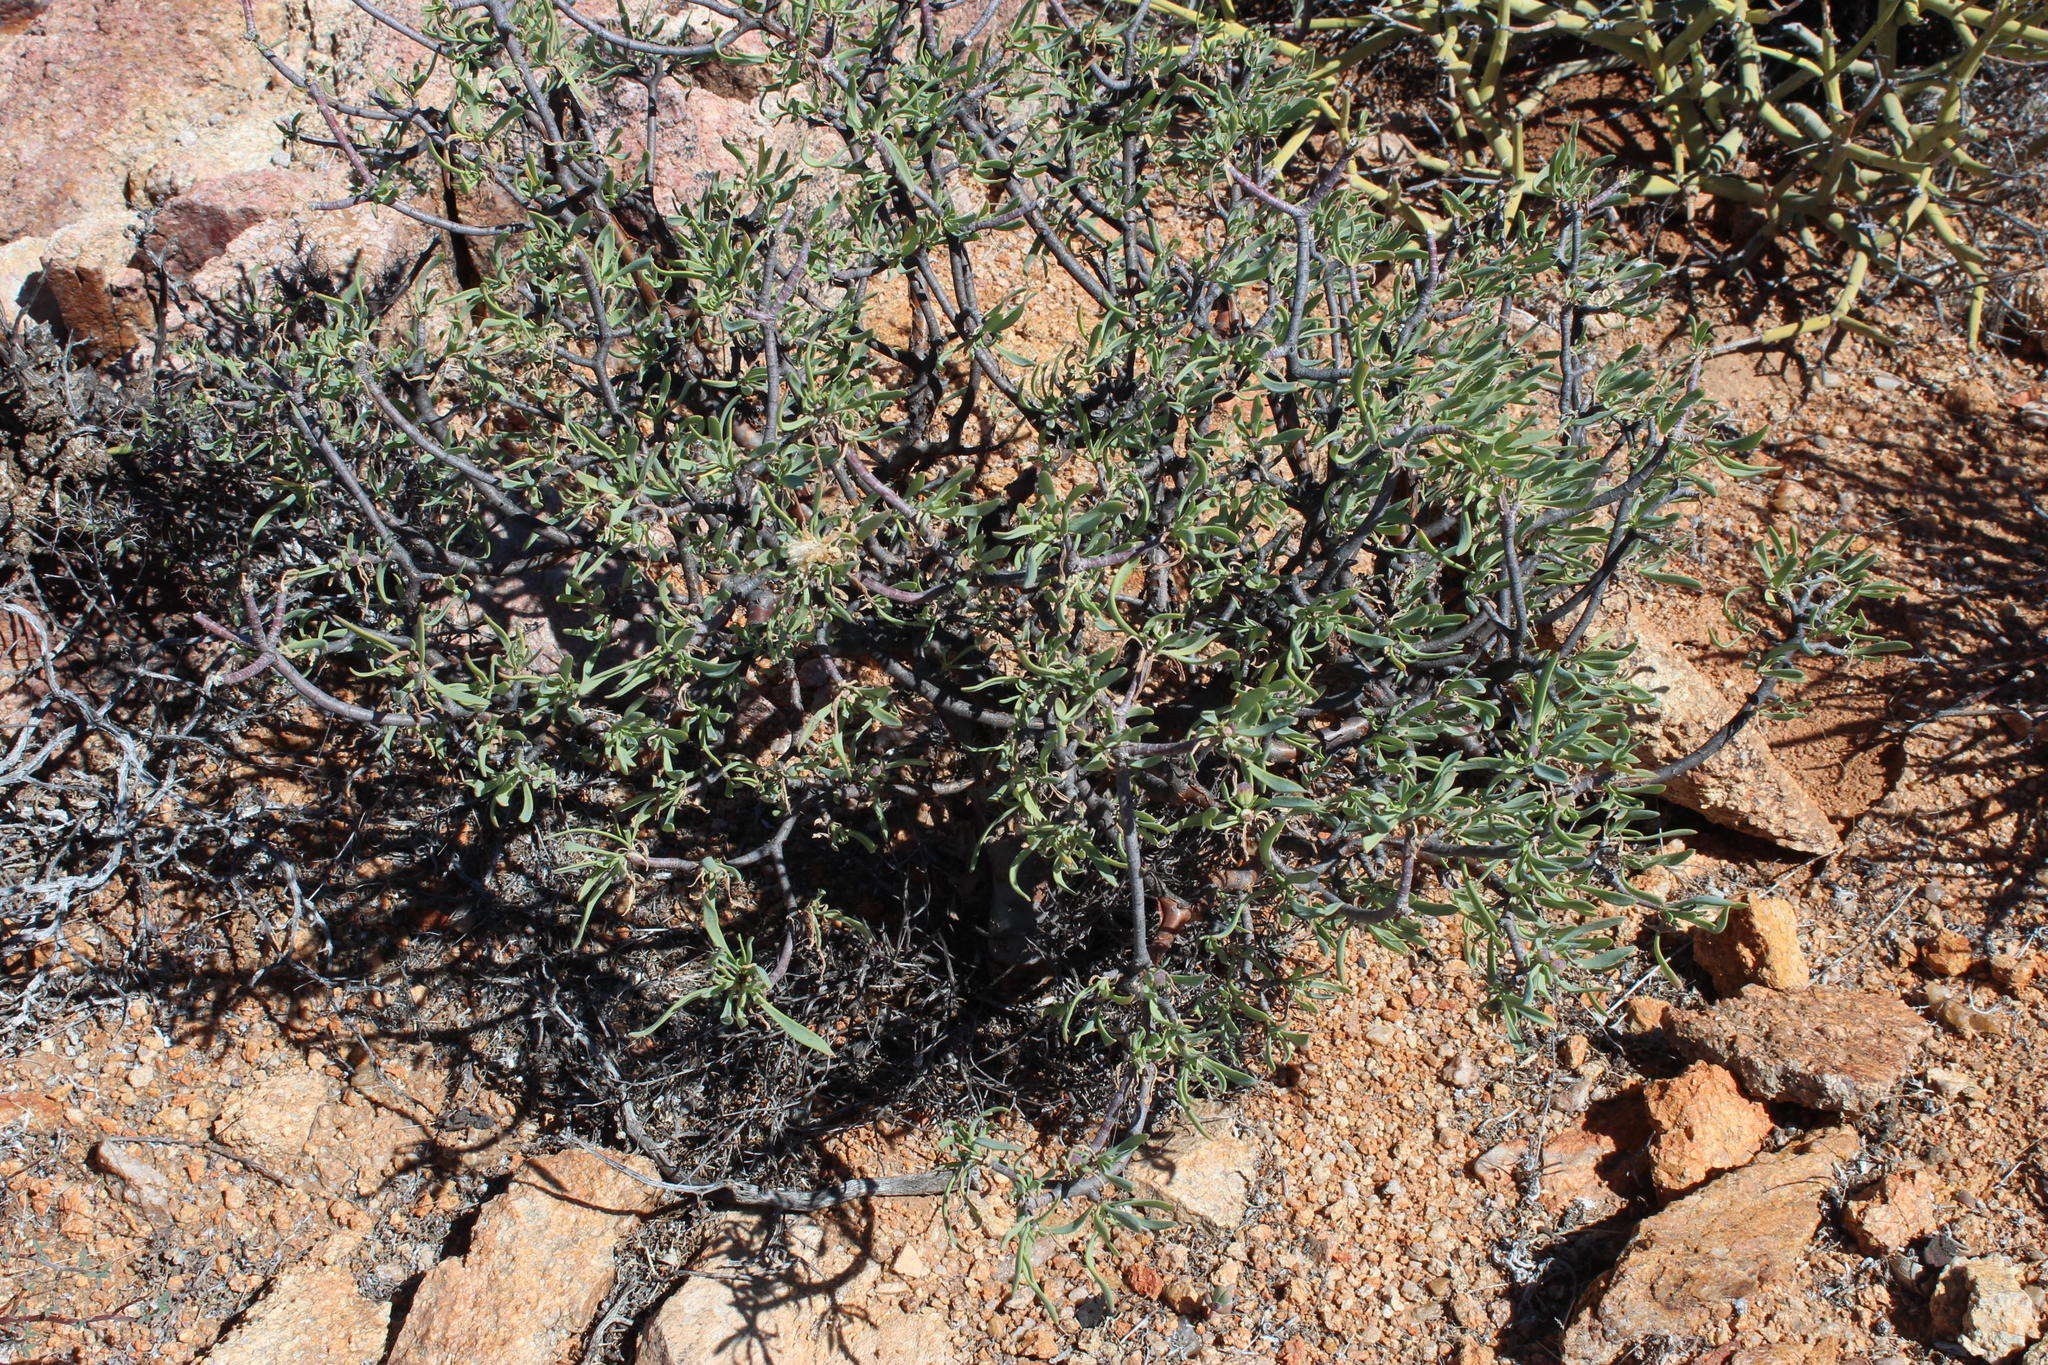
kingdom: Plantae
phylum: Tracheophyta
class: Magnoliopsida
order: Asterales
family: Asteraceae
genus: Othonna
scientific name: Othonna lasiocarpa
